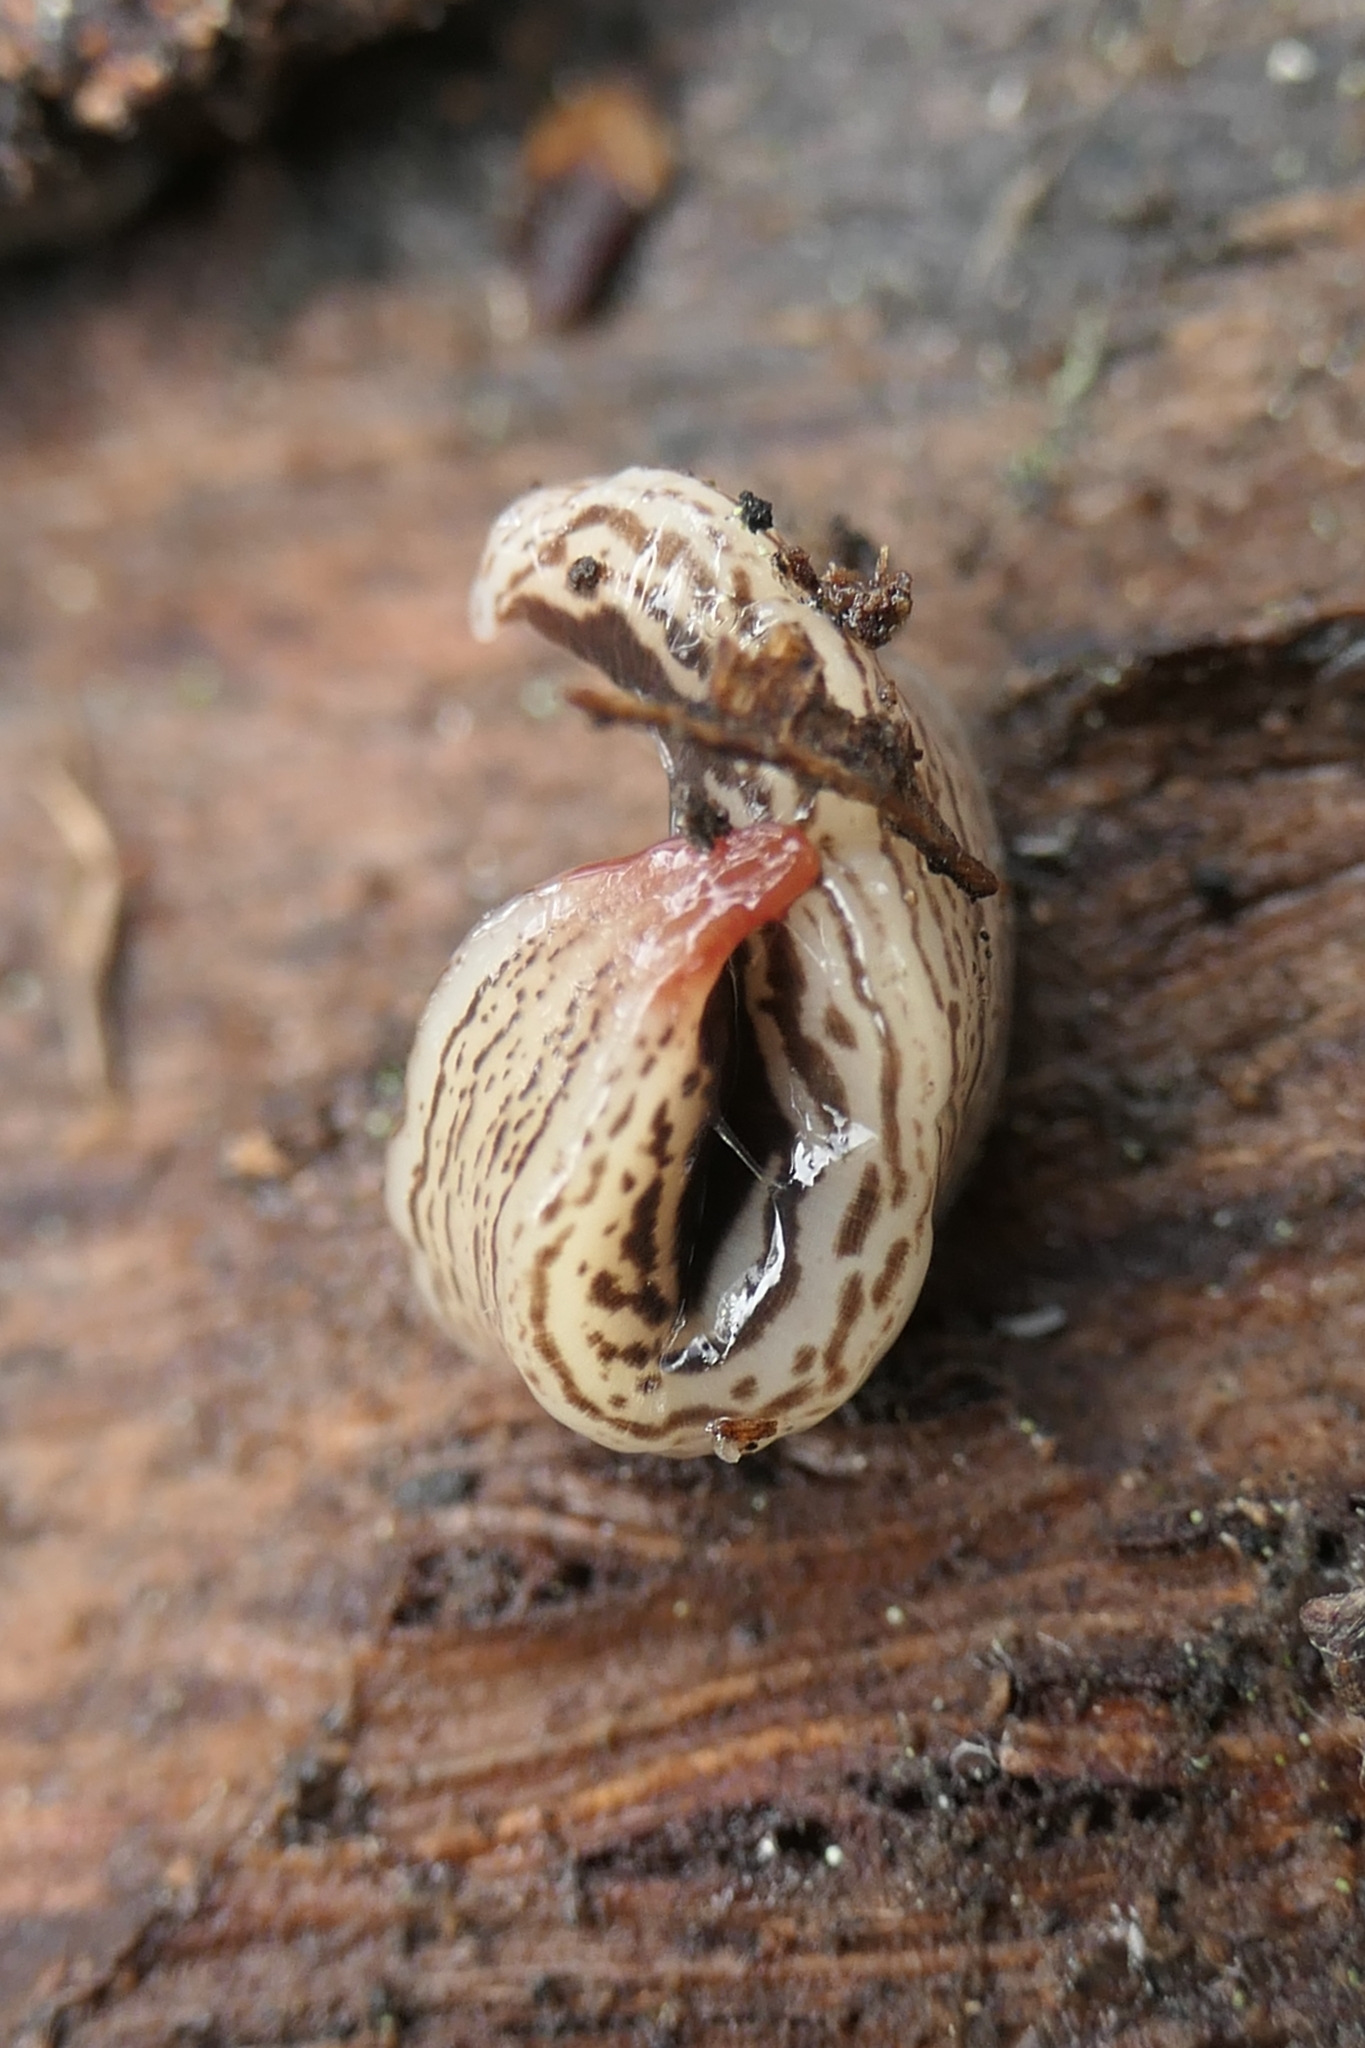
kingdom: Animalia
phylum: Platyhelminthes
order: Tricladida
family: Geoplanidae
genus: Australopacifica
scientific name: Australopacifica gelatinosa
